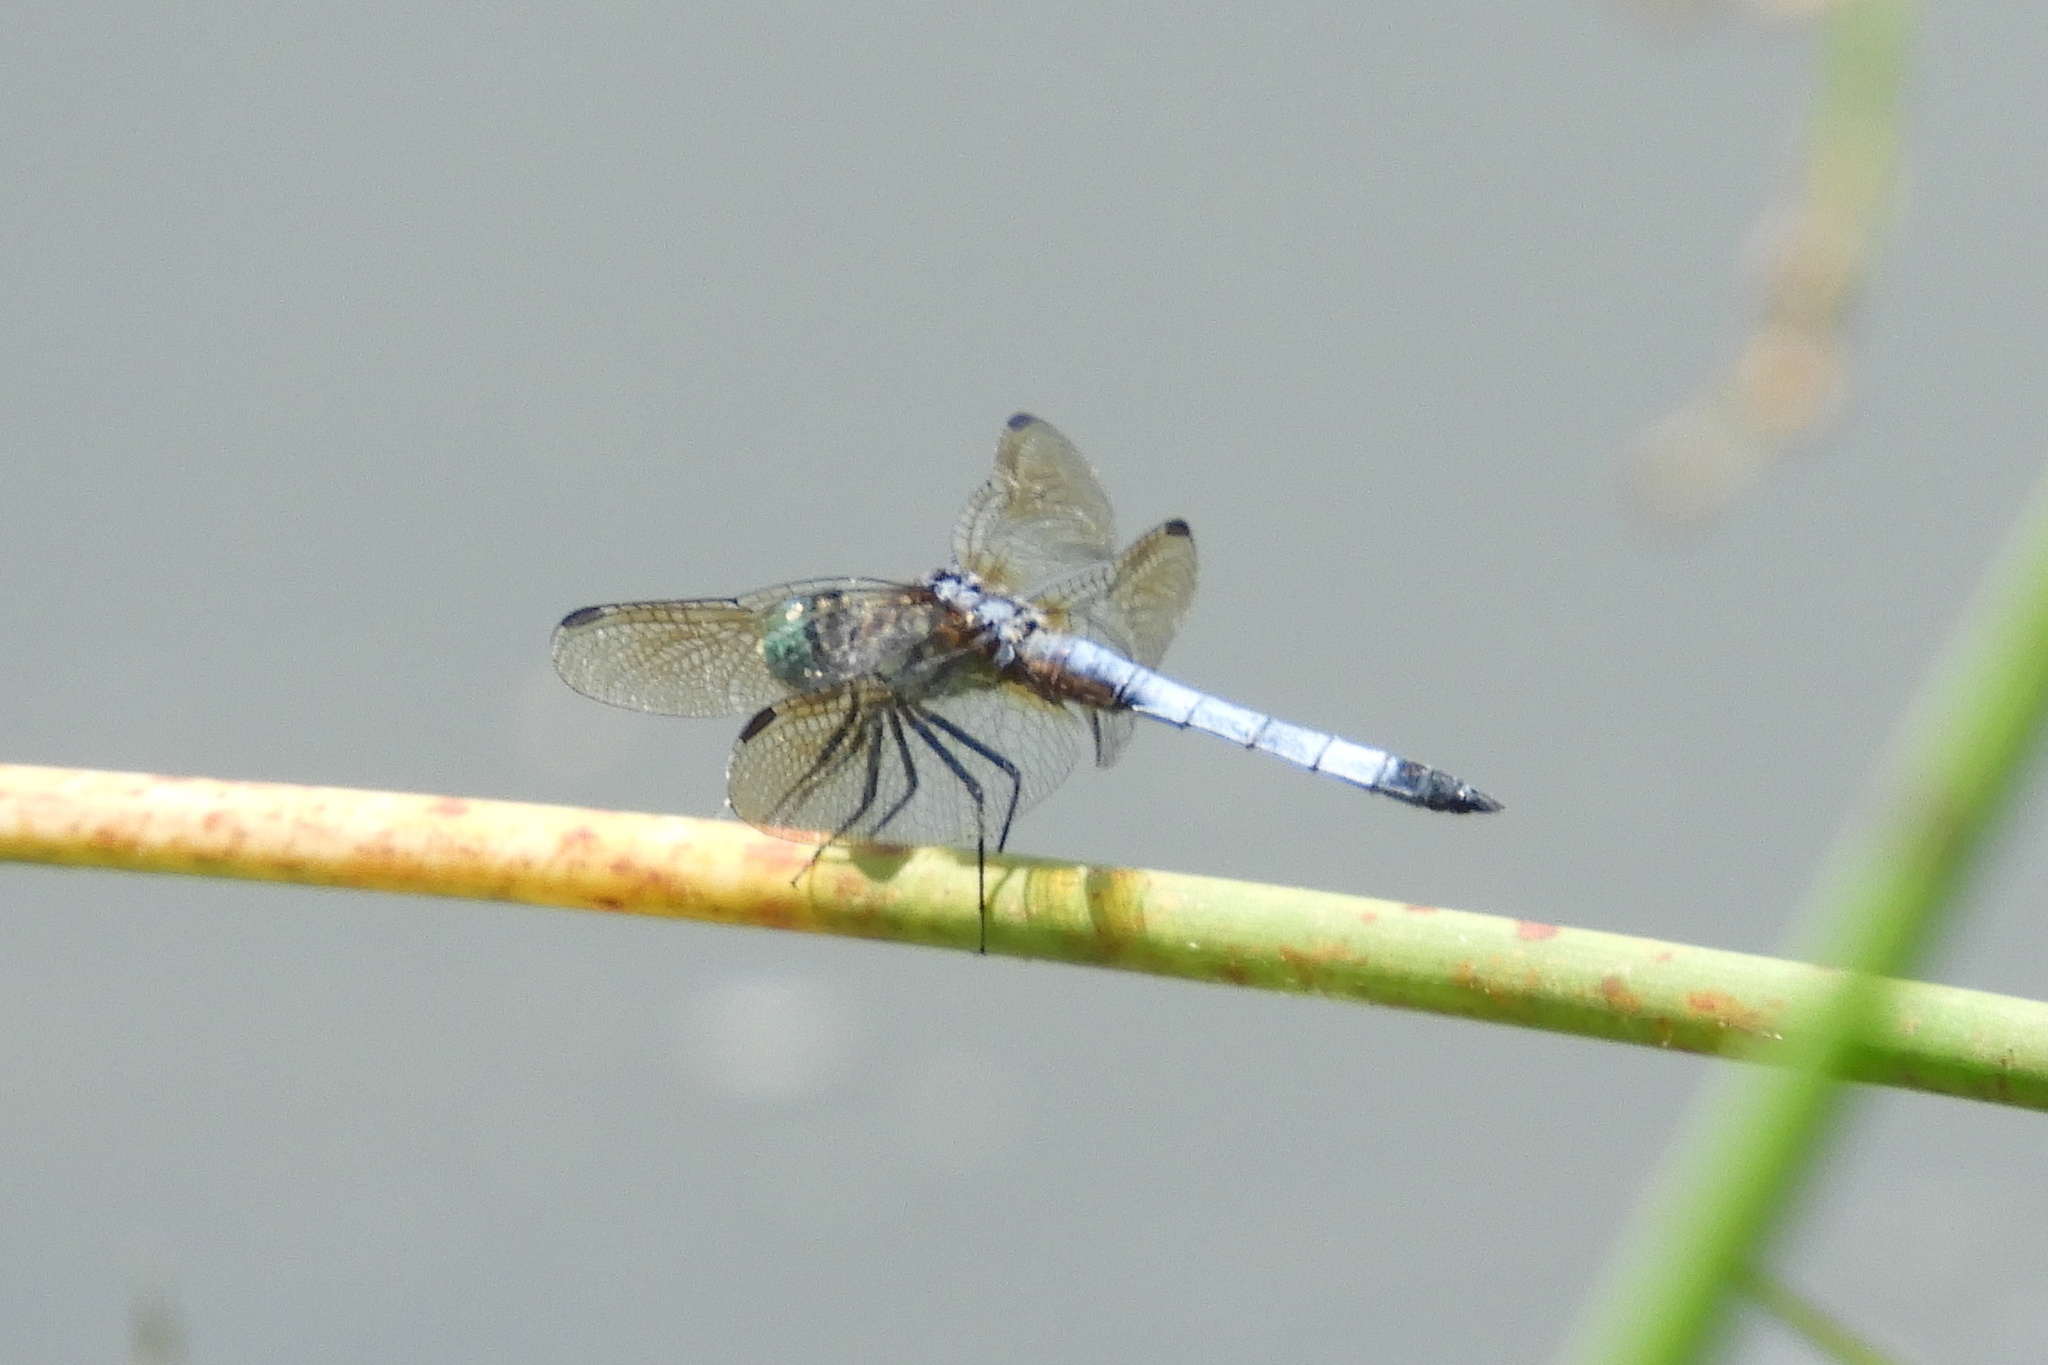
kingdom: Animalia
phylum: Arthropoda
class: Insecta
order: Odonata
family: Libellulidae
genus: Pachydiplax
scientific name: Pachydiplax longipennis
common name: Blue dasher
